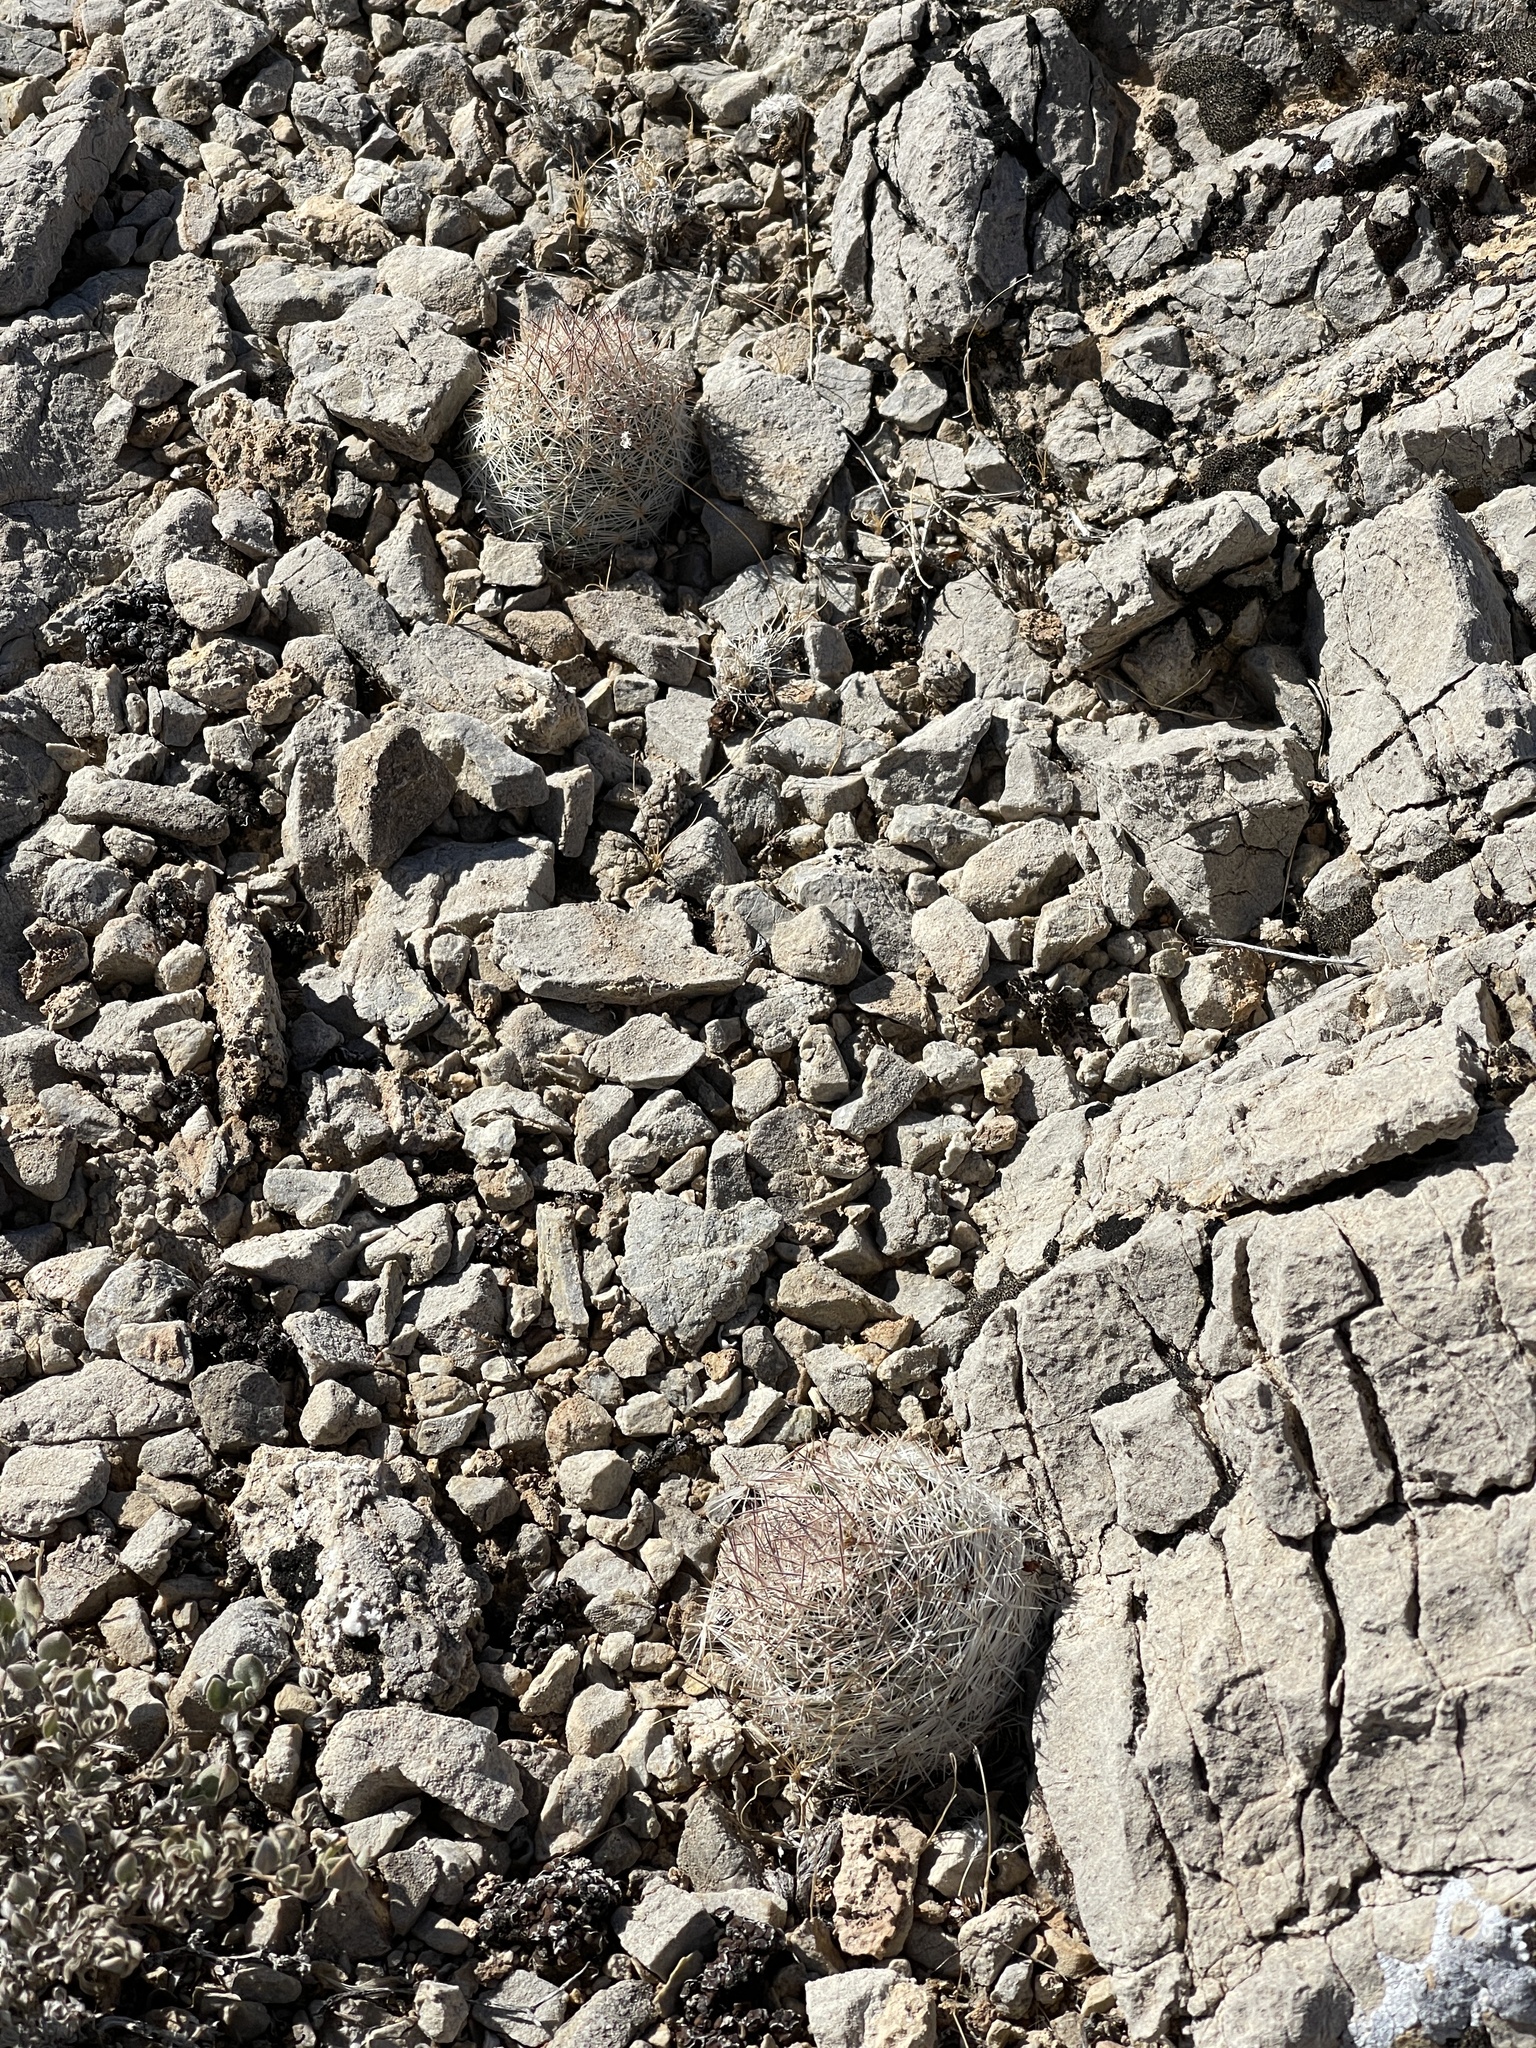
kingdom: Plantae
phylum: Tracheophyta
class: Magnoliopsida
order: Caryophyllales
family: Cactaceae
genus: Pelecyphora
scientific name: Pelecyphora dasyacantha
